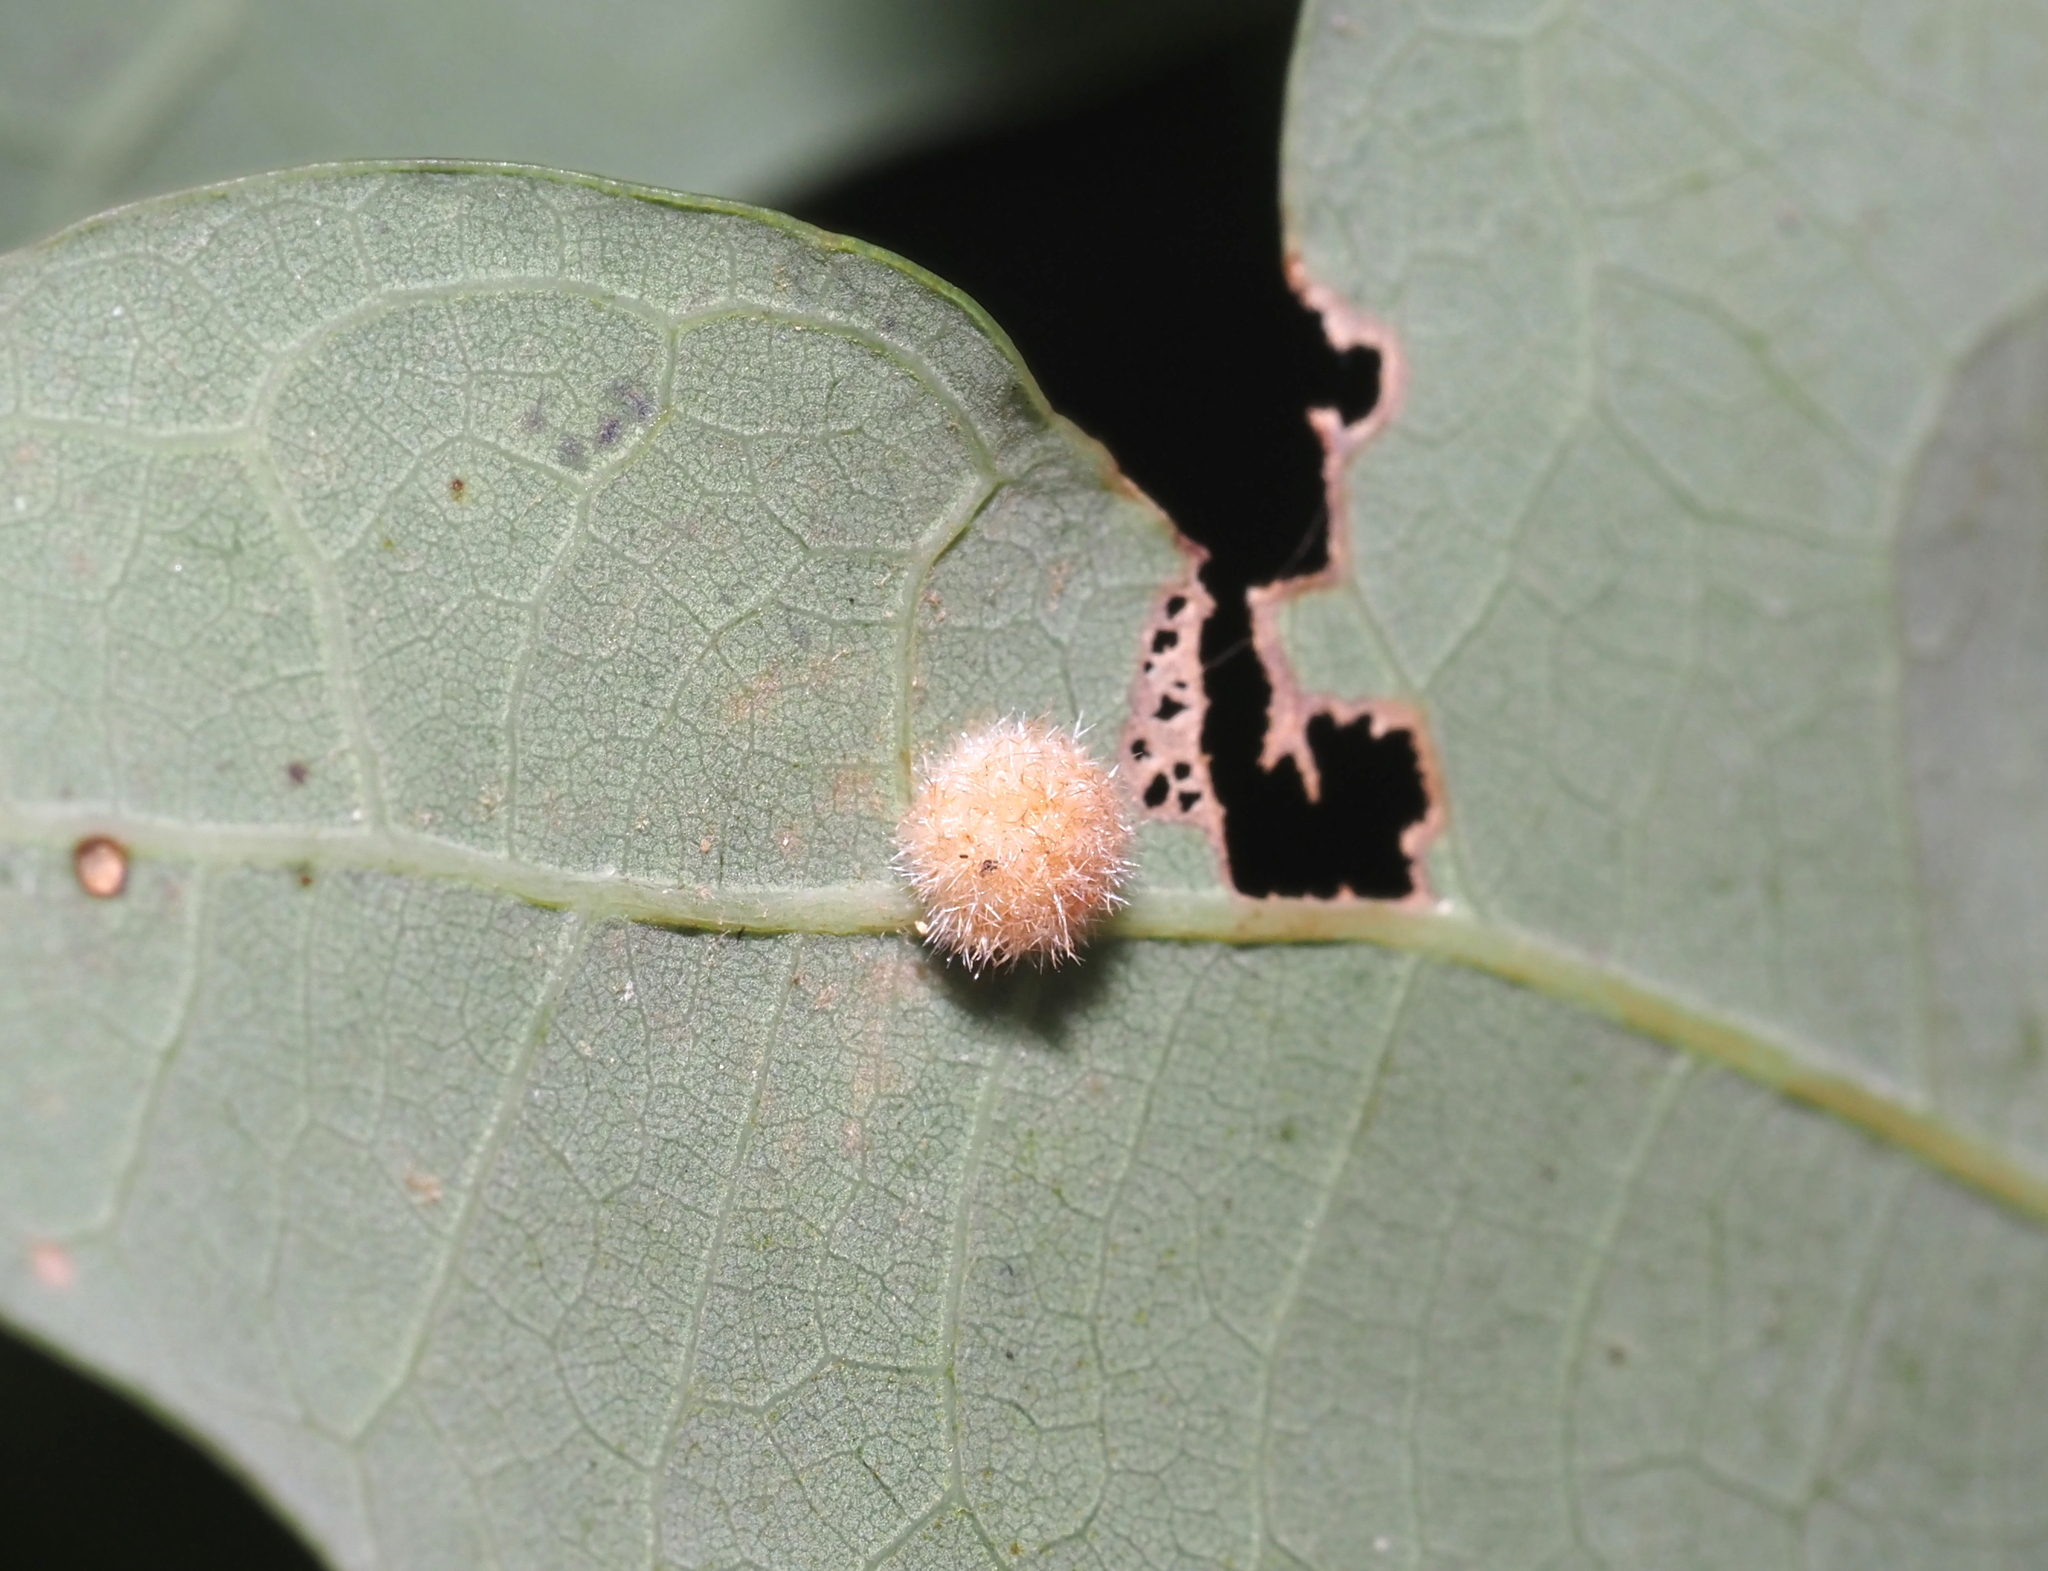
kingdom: Animalia
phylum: Arthropoda
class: Insecta
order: Hymenoptera
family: Cynipidae
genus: Philonix
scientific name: Philonix fulvicollis
